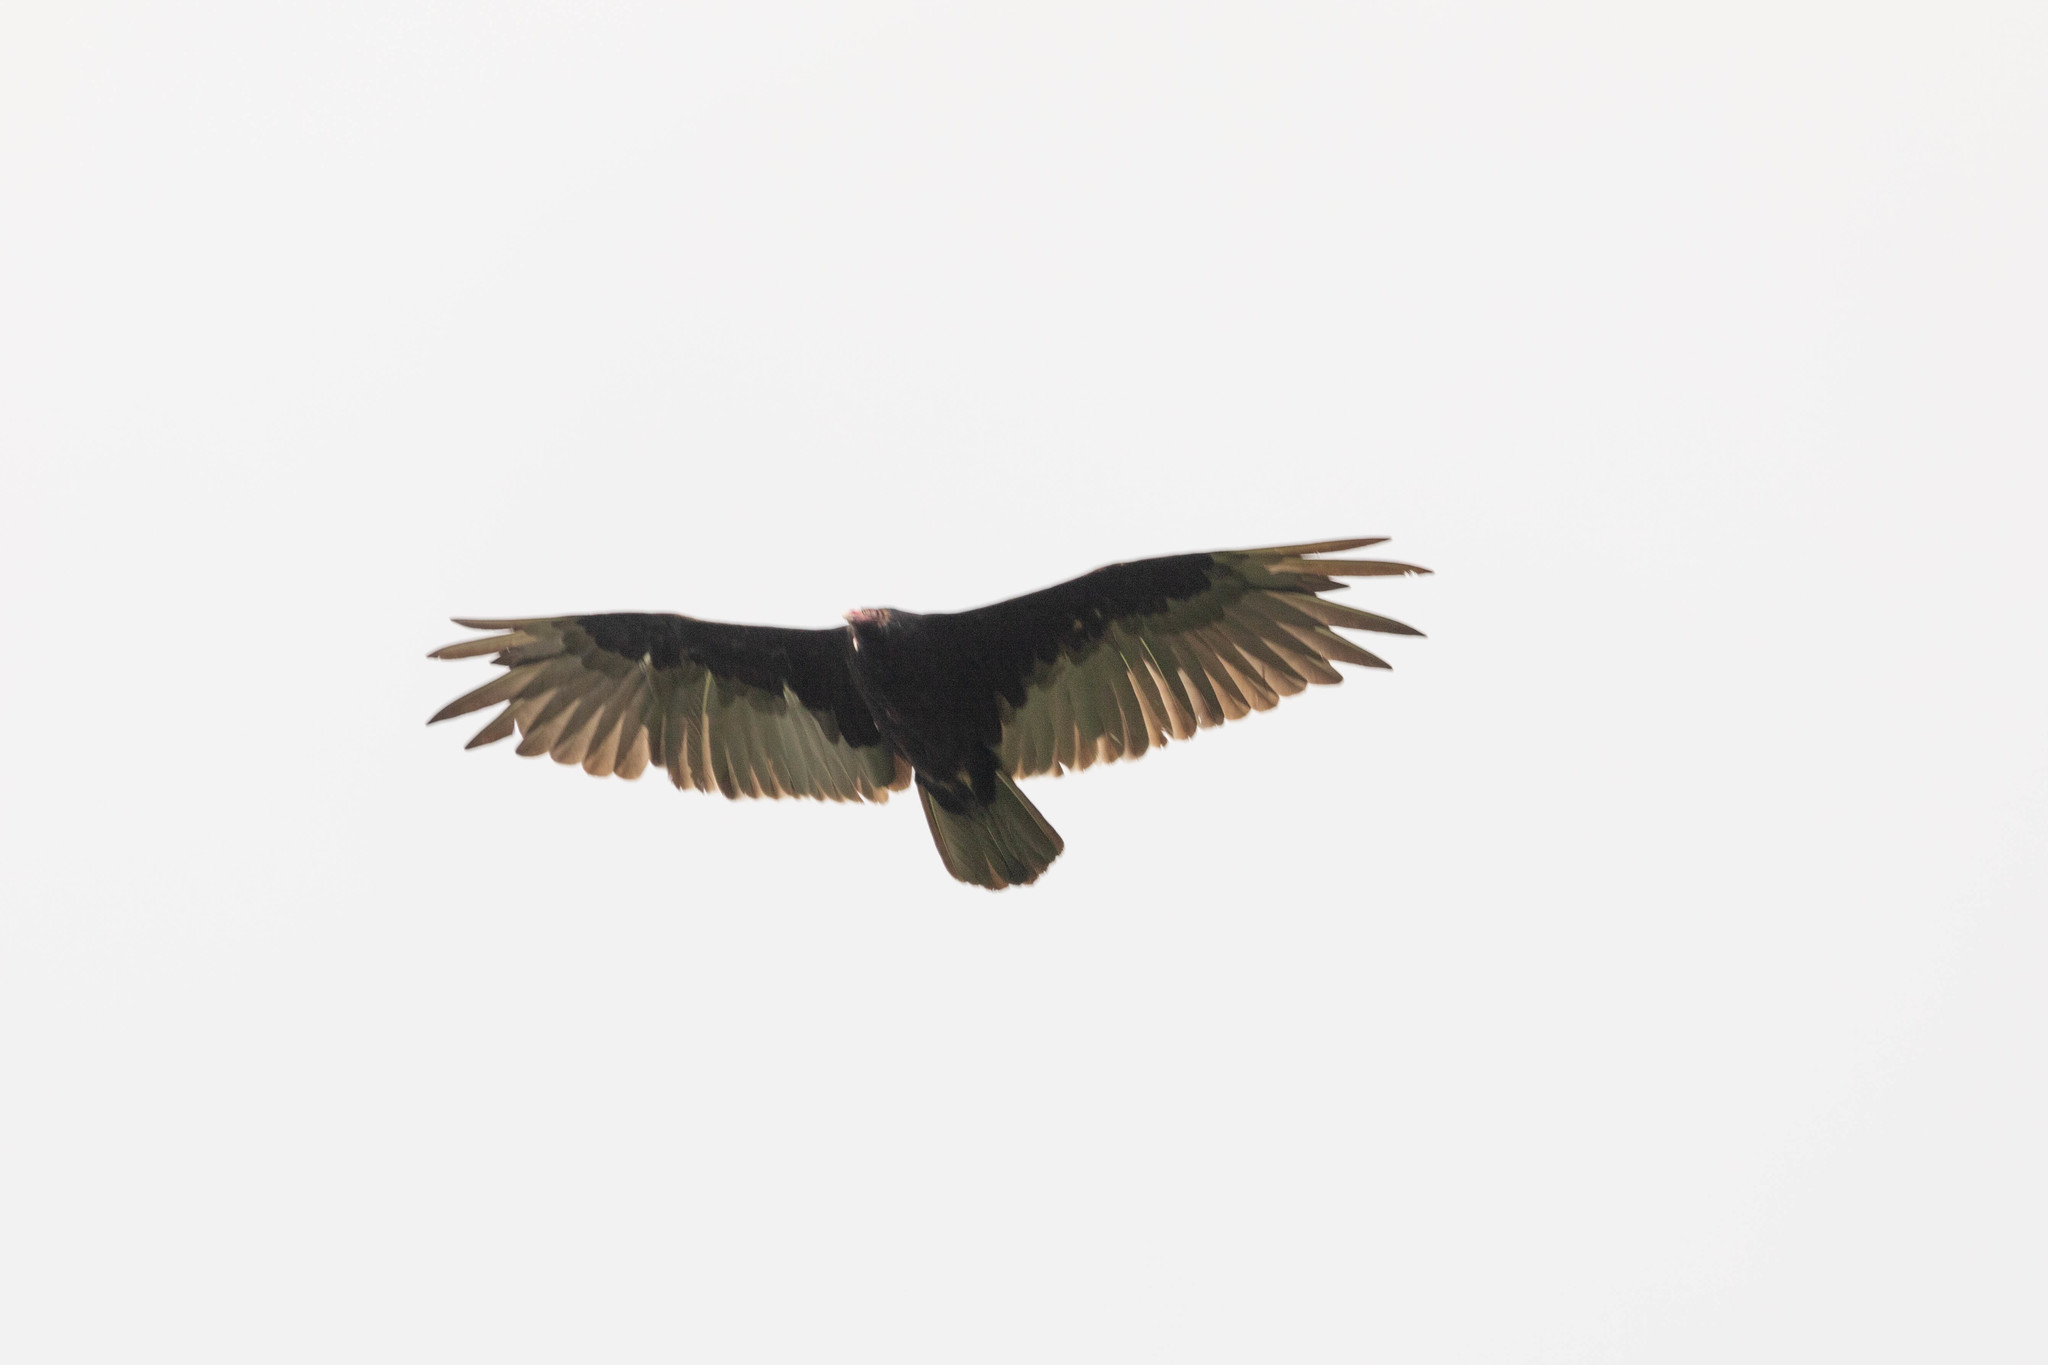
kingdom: Animalia
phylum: Chordata
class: Aves
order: Accipitriformes
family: Cathartidae
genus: Cathartes
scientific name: Cathartes aura
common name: Turkey vulture
